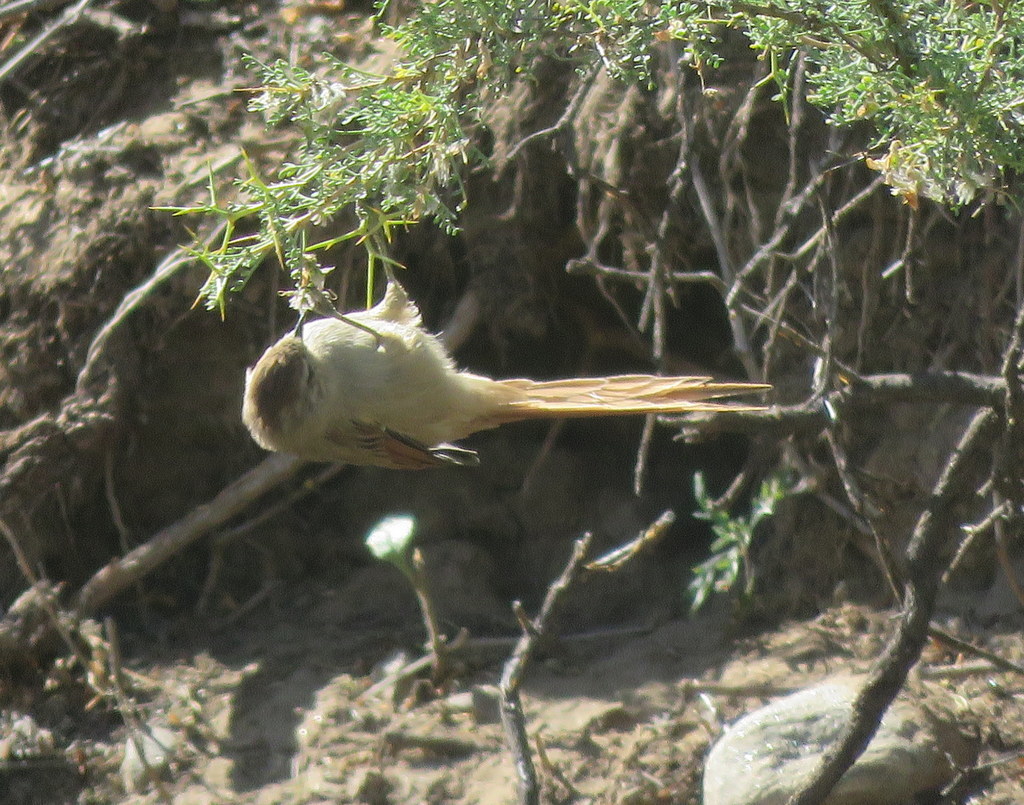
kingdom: Animalia
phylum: Chordata
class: Aves
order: Passeriformes
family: Furnariidae
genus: Leptasthenura
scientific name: Leptasthenura aegithaloides
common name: Plain-mantled tit-spinetail
